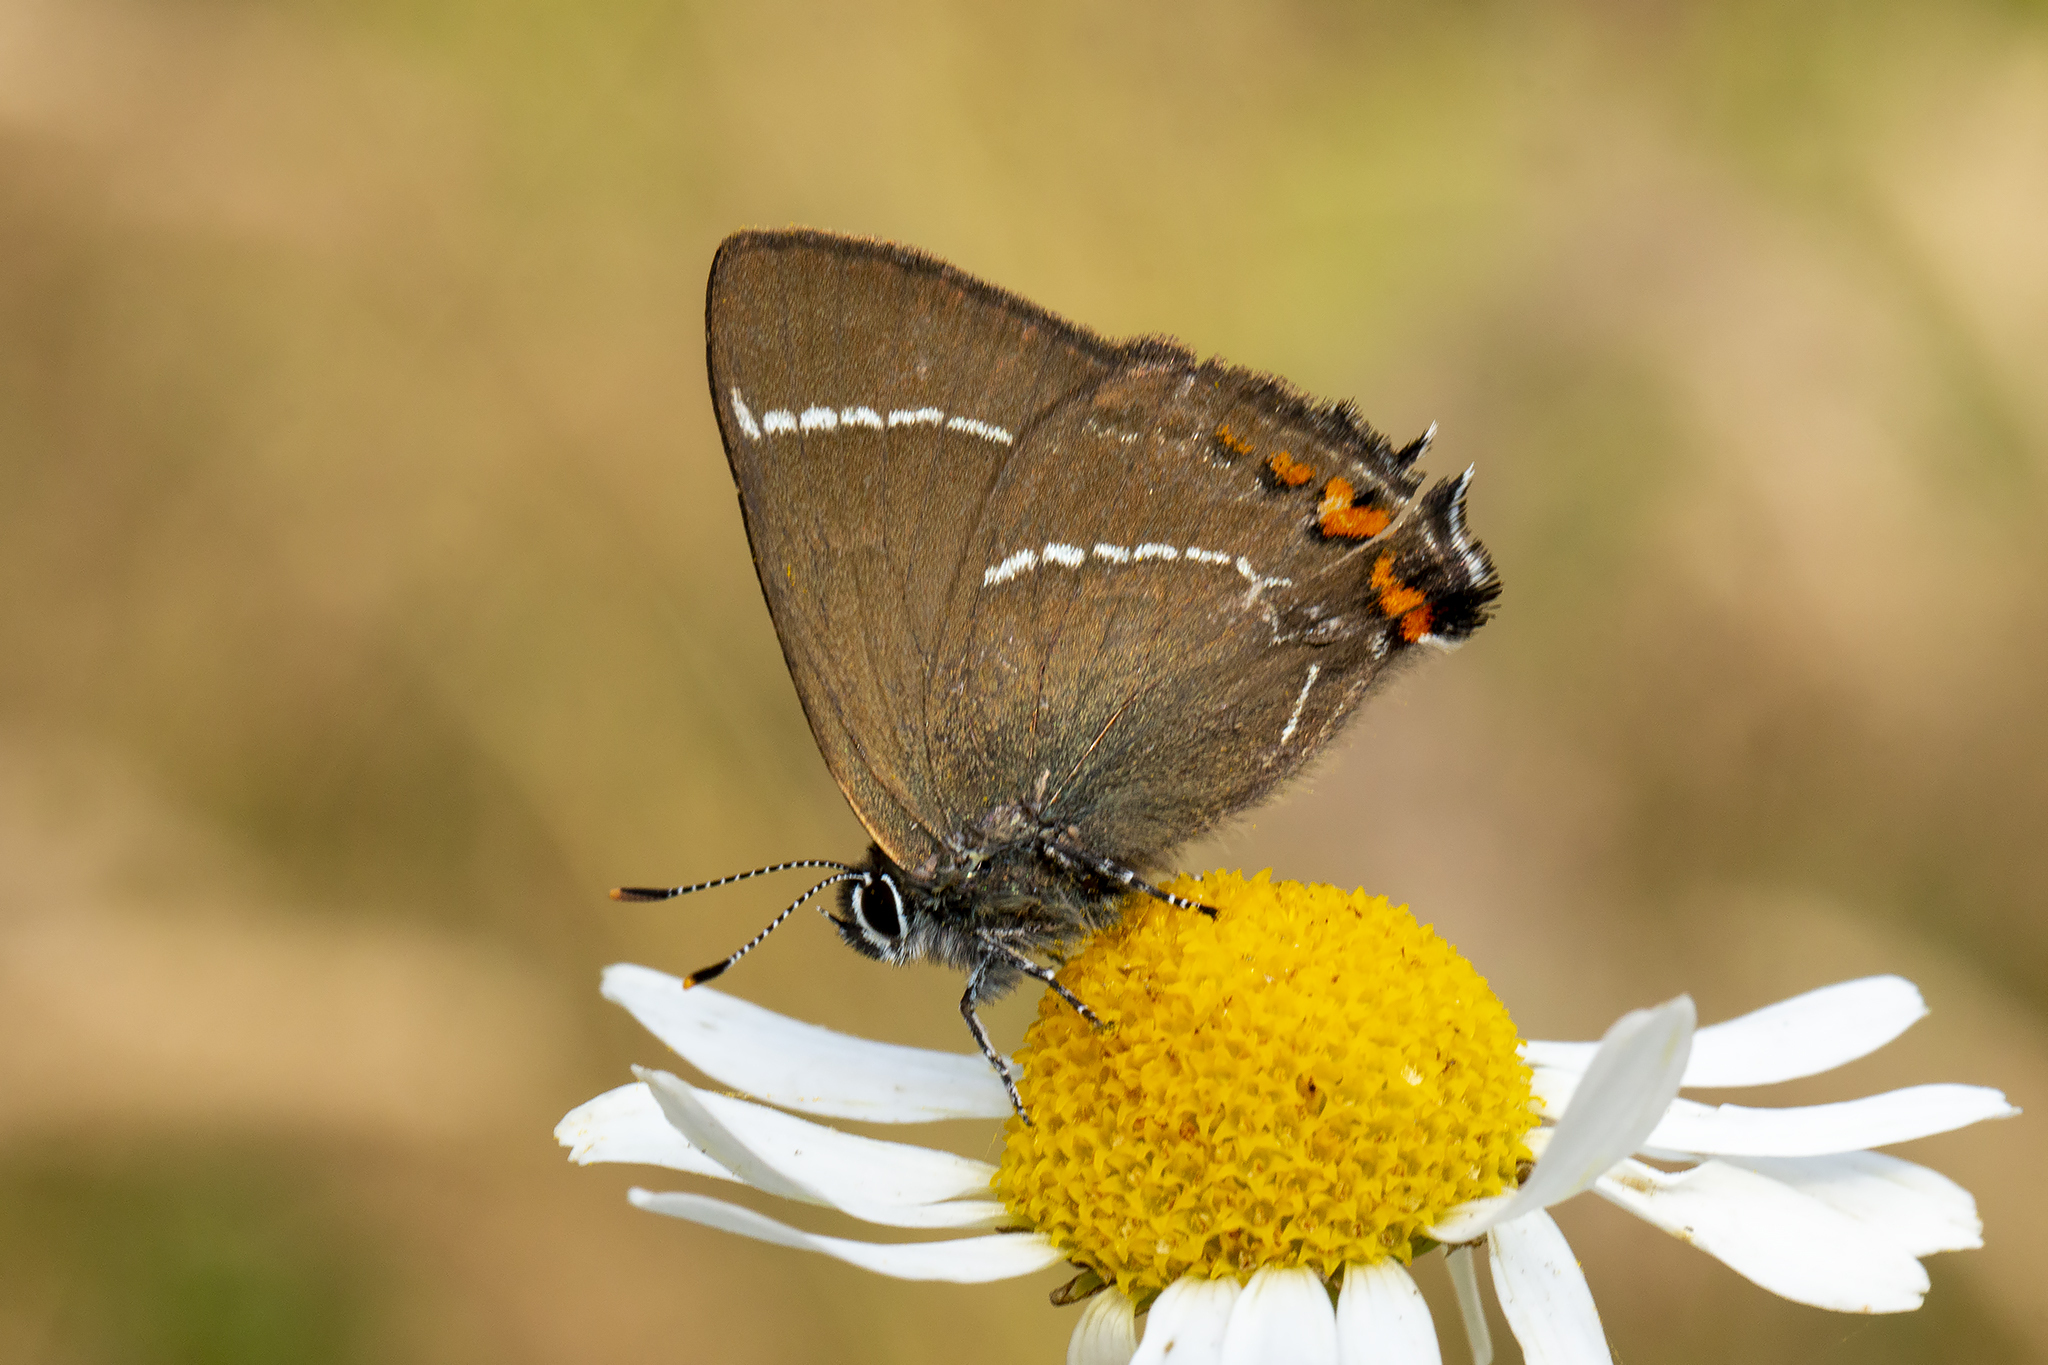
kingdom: Animalia
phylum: Arthropoda
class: Insecta
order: Lepidoptera
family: Lycaenidae
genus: Satyrium
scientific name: Satyrium w-album
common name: White-letter hairstreak
